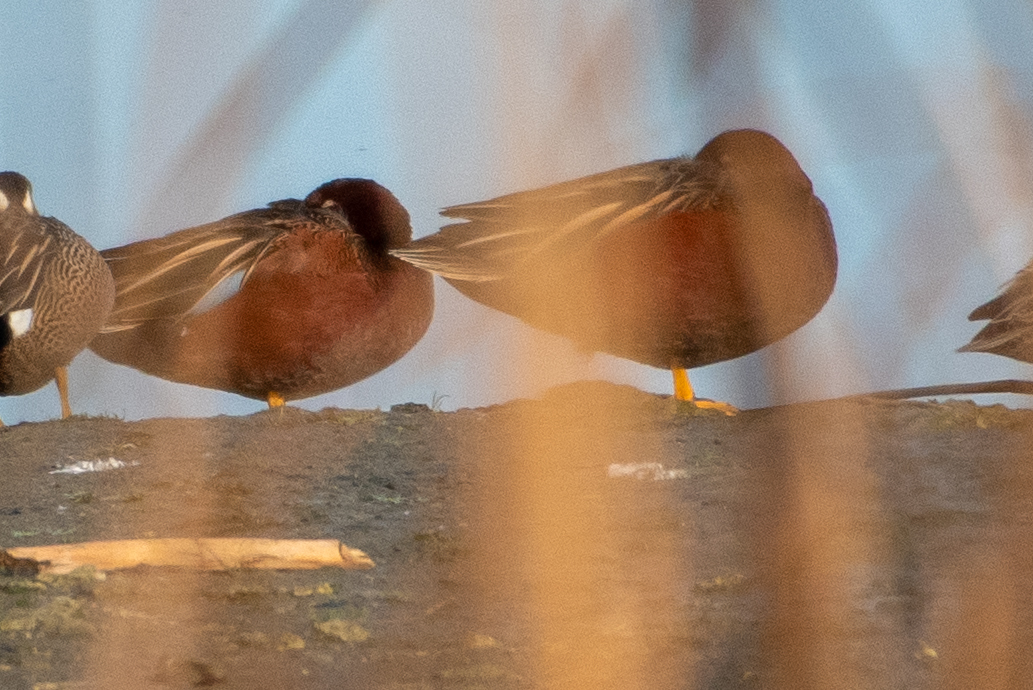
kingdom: Animalia
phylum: Chordata
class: Aves
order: Anseriformes
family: Anatidae
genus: Spatula
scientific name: Spatula cyanoptera
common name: Cinnamon teal
